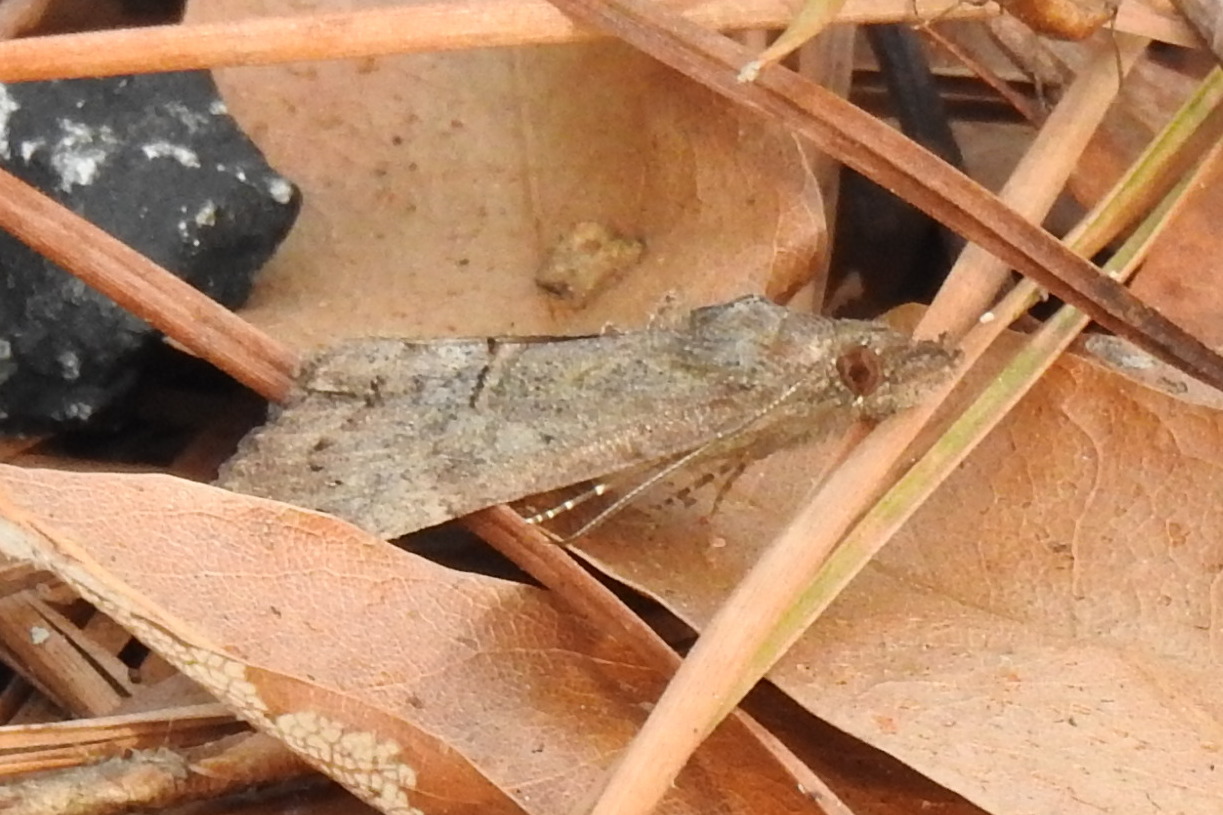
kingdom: Animalia
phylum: Arthropoda
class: Insecta
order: Lepidoptera
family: Erebidae
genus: Hypena
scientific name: Hypena scabra
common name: Green cloverworm
